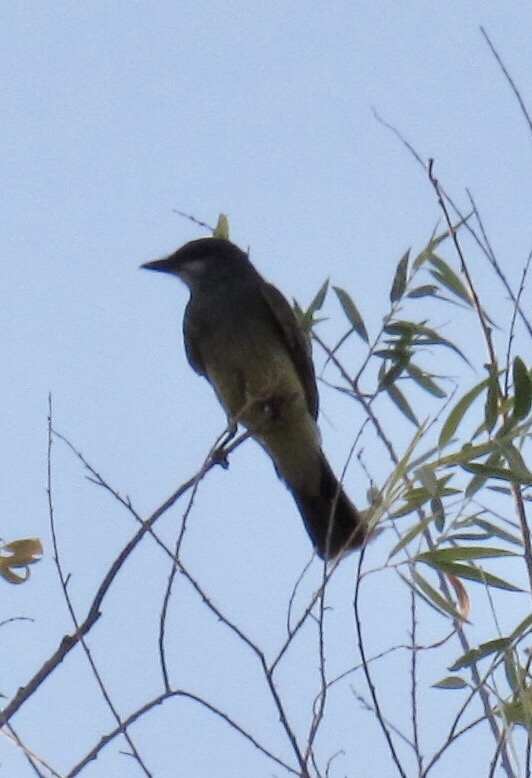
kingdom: Animalia
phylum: Chordata
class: Aves
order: Passeriformes
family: Tyrannidae
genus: Tyrannus
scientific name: Tyrannus vociferans
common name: Cassin's kingbird
